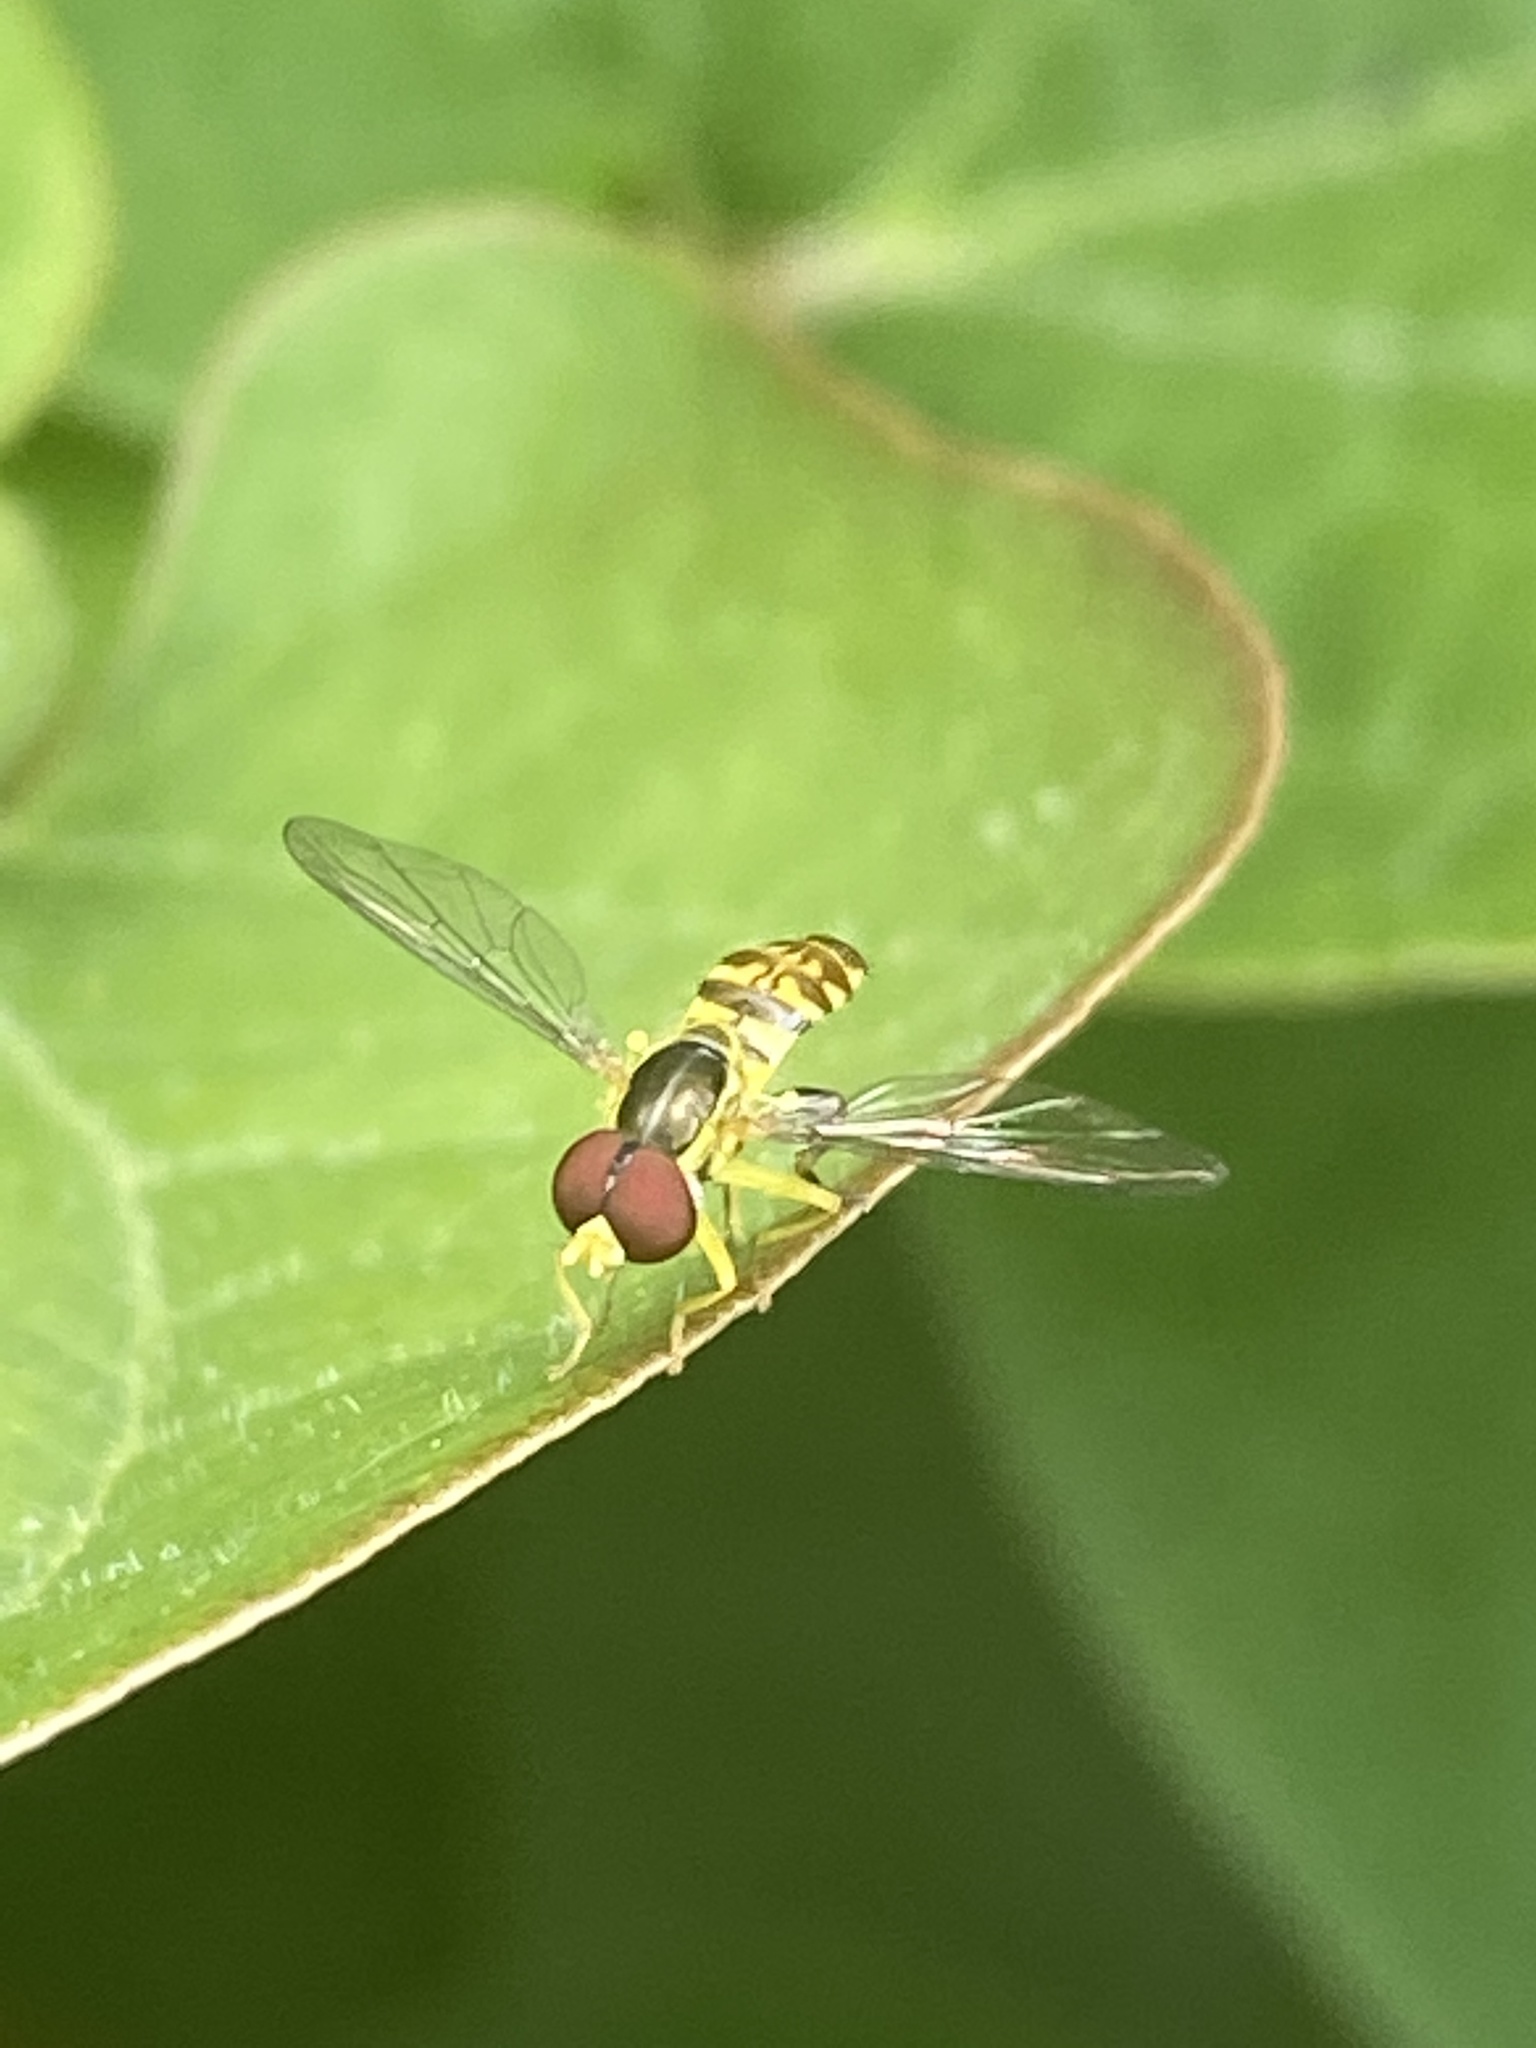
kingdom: Animalia
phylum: Arthropoda
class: Insecta
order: Diptera
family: Syrphidae
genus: Toxomerus
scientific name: Toxomerus geminatus
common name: Eastern calligrapher
